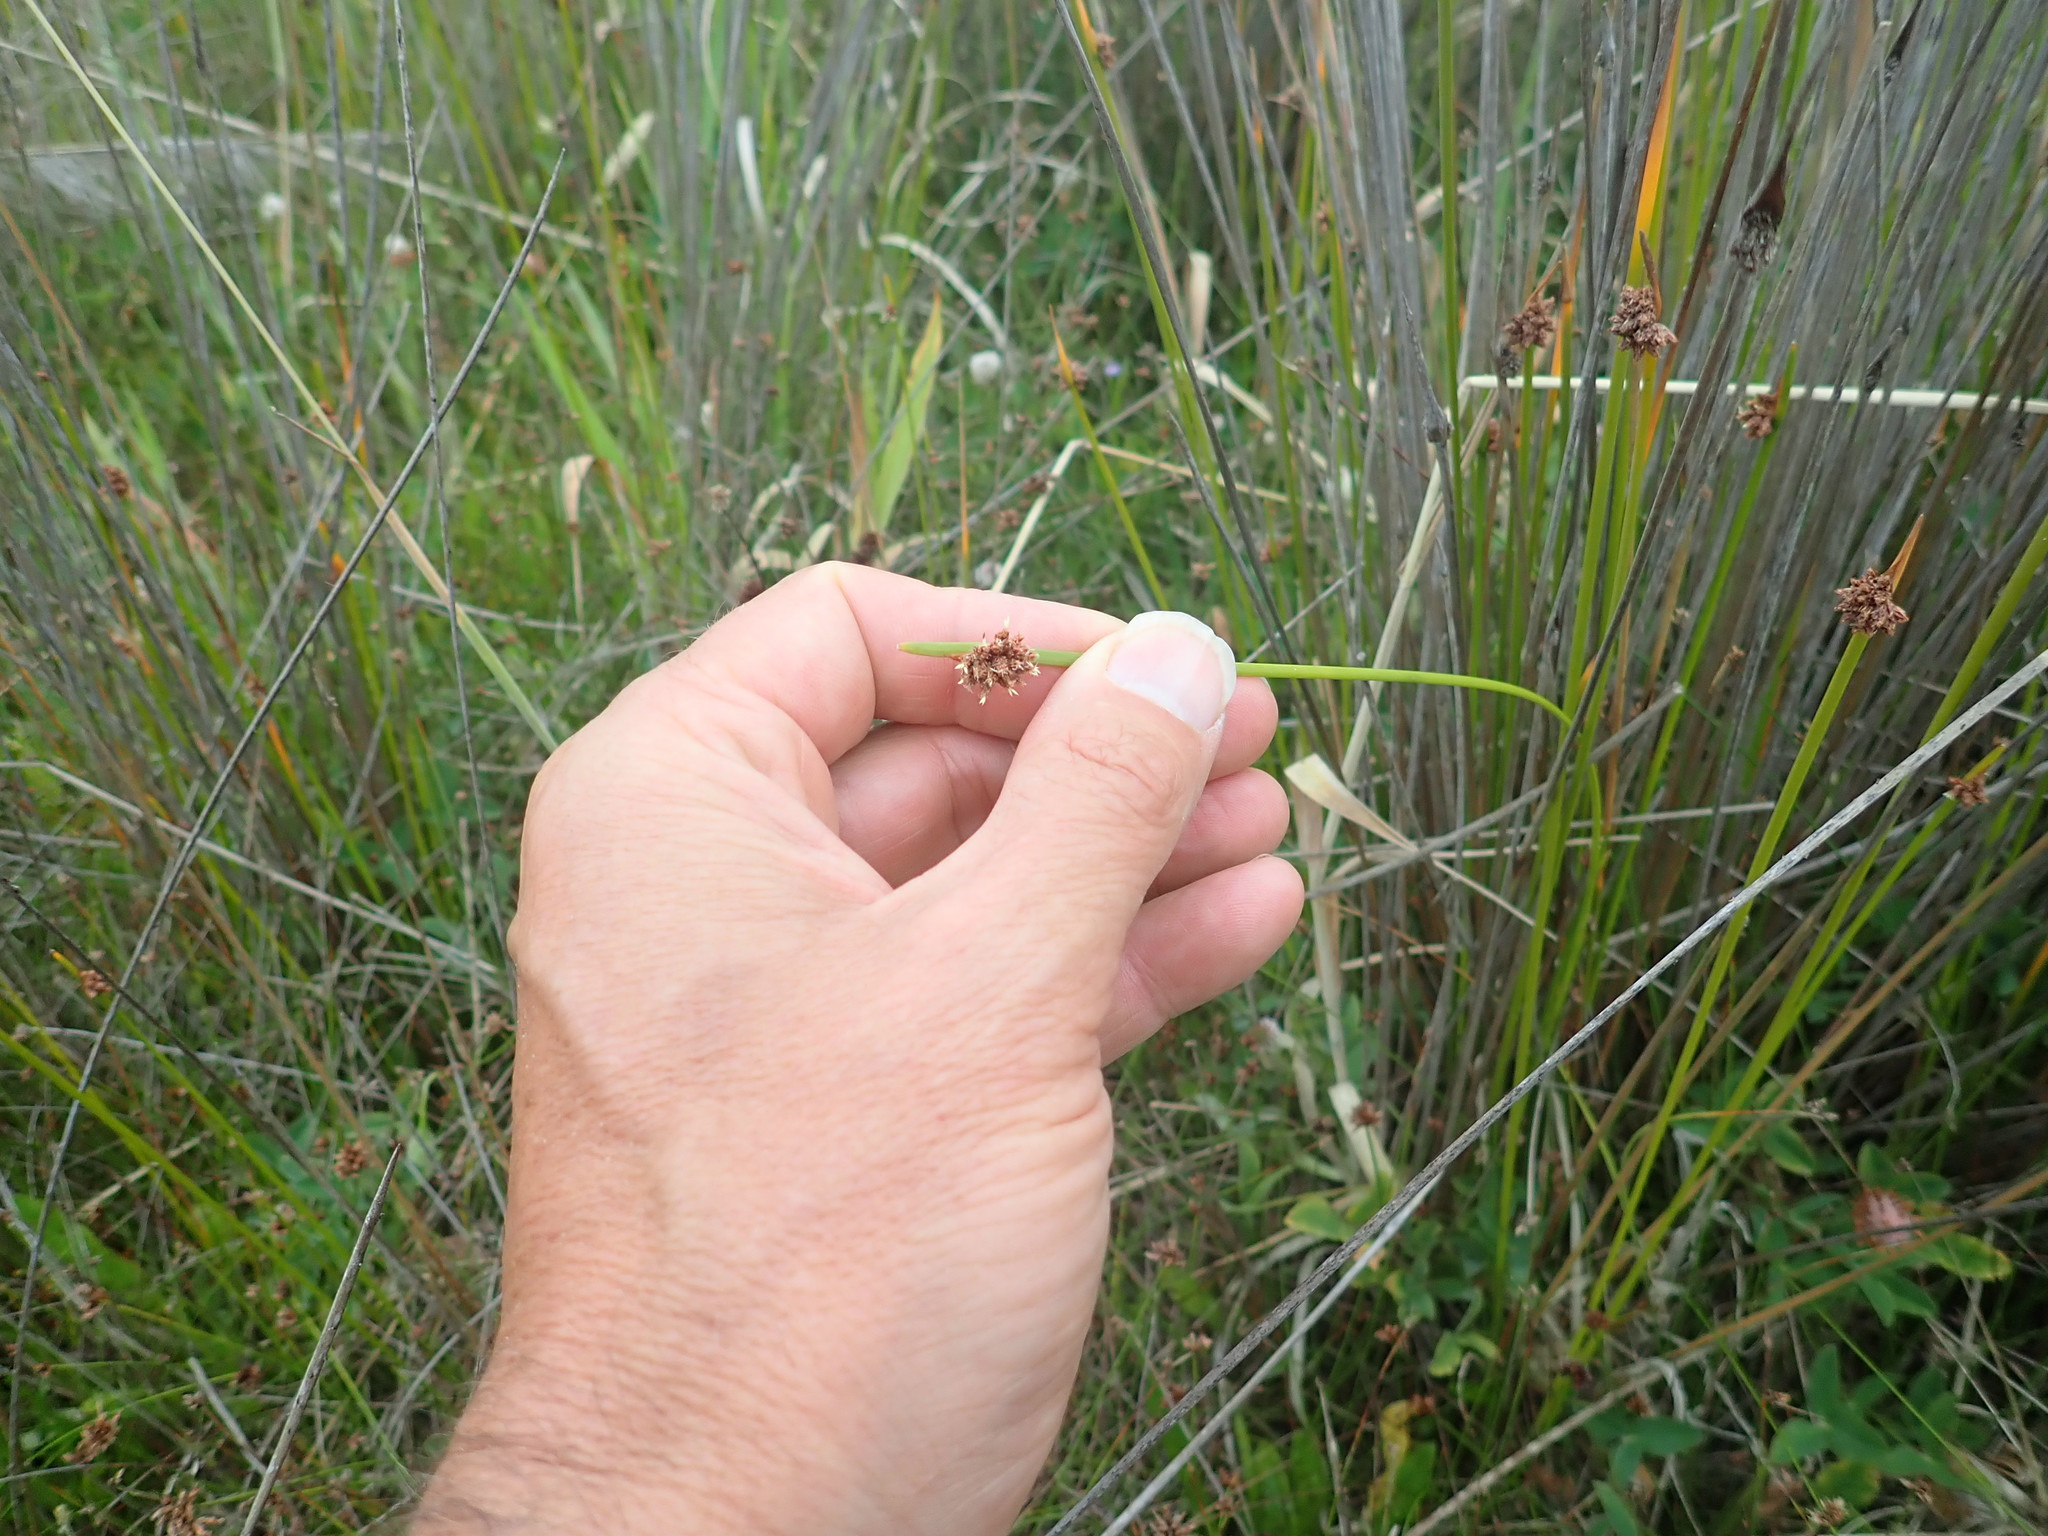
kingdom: Plantae
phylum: Tracheophyta
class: Liliopsida
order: Poales
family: Cyperaceae
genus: Ficinia
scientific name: Ficinia nodosa
